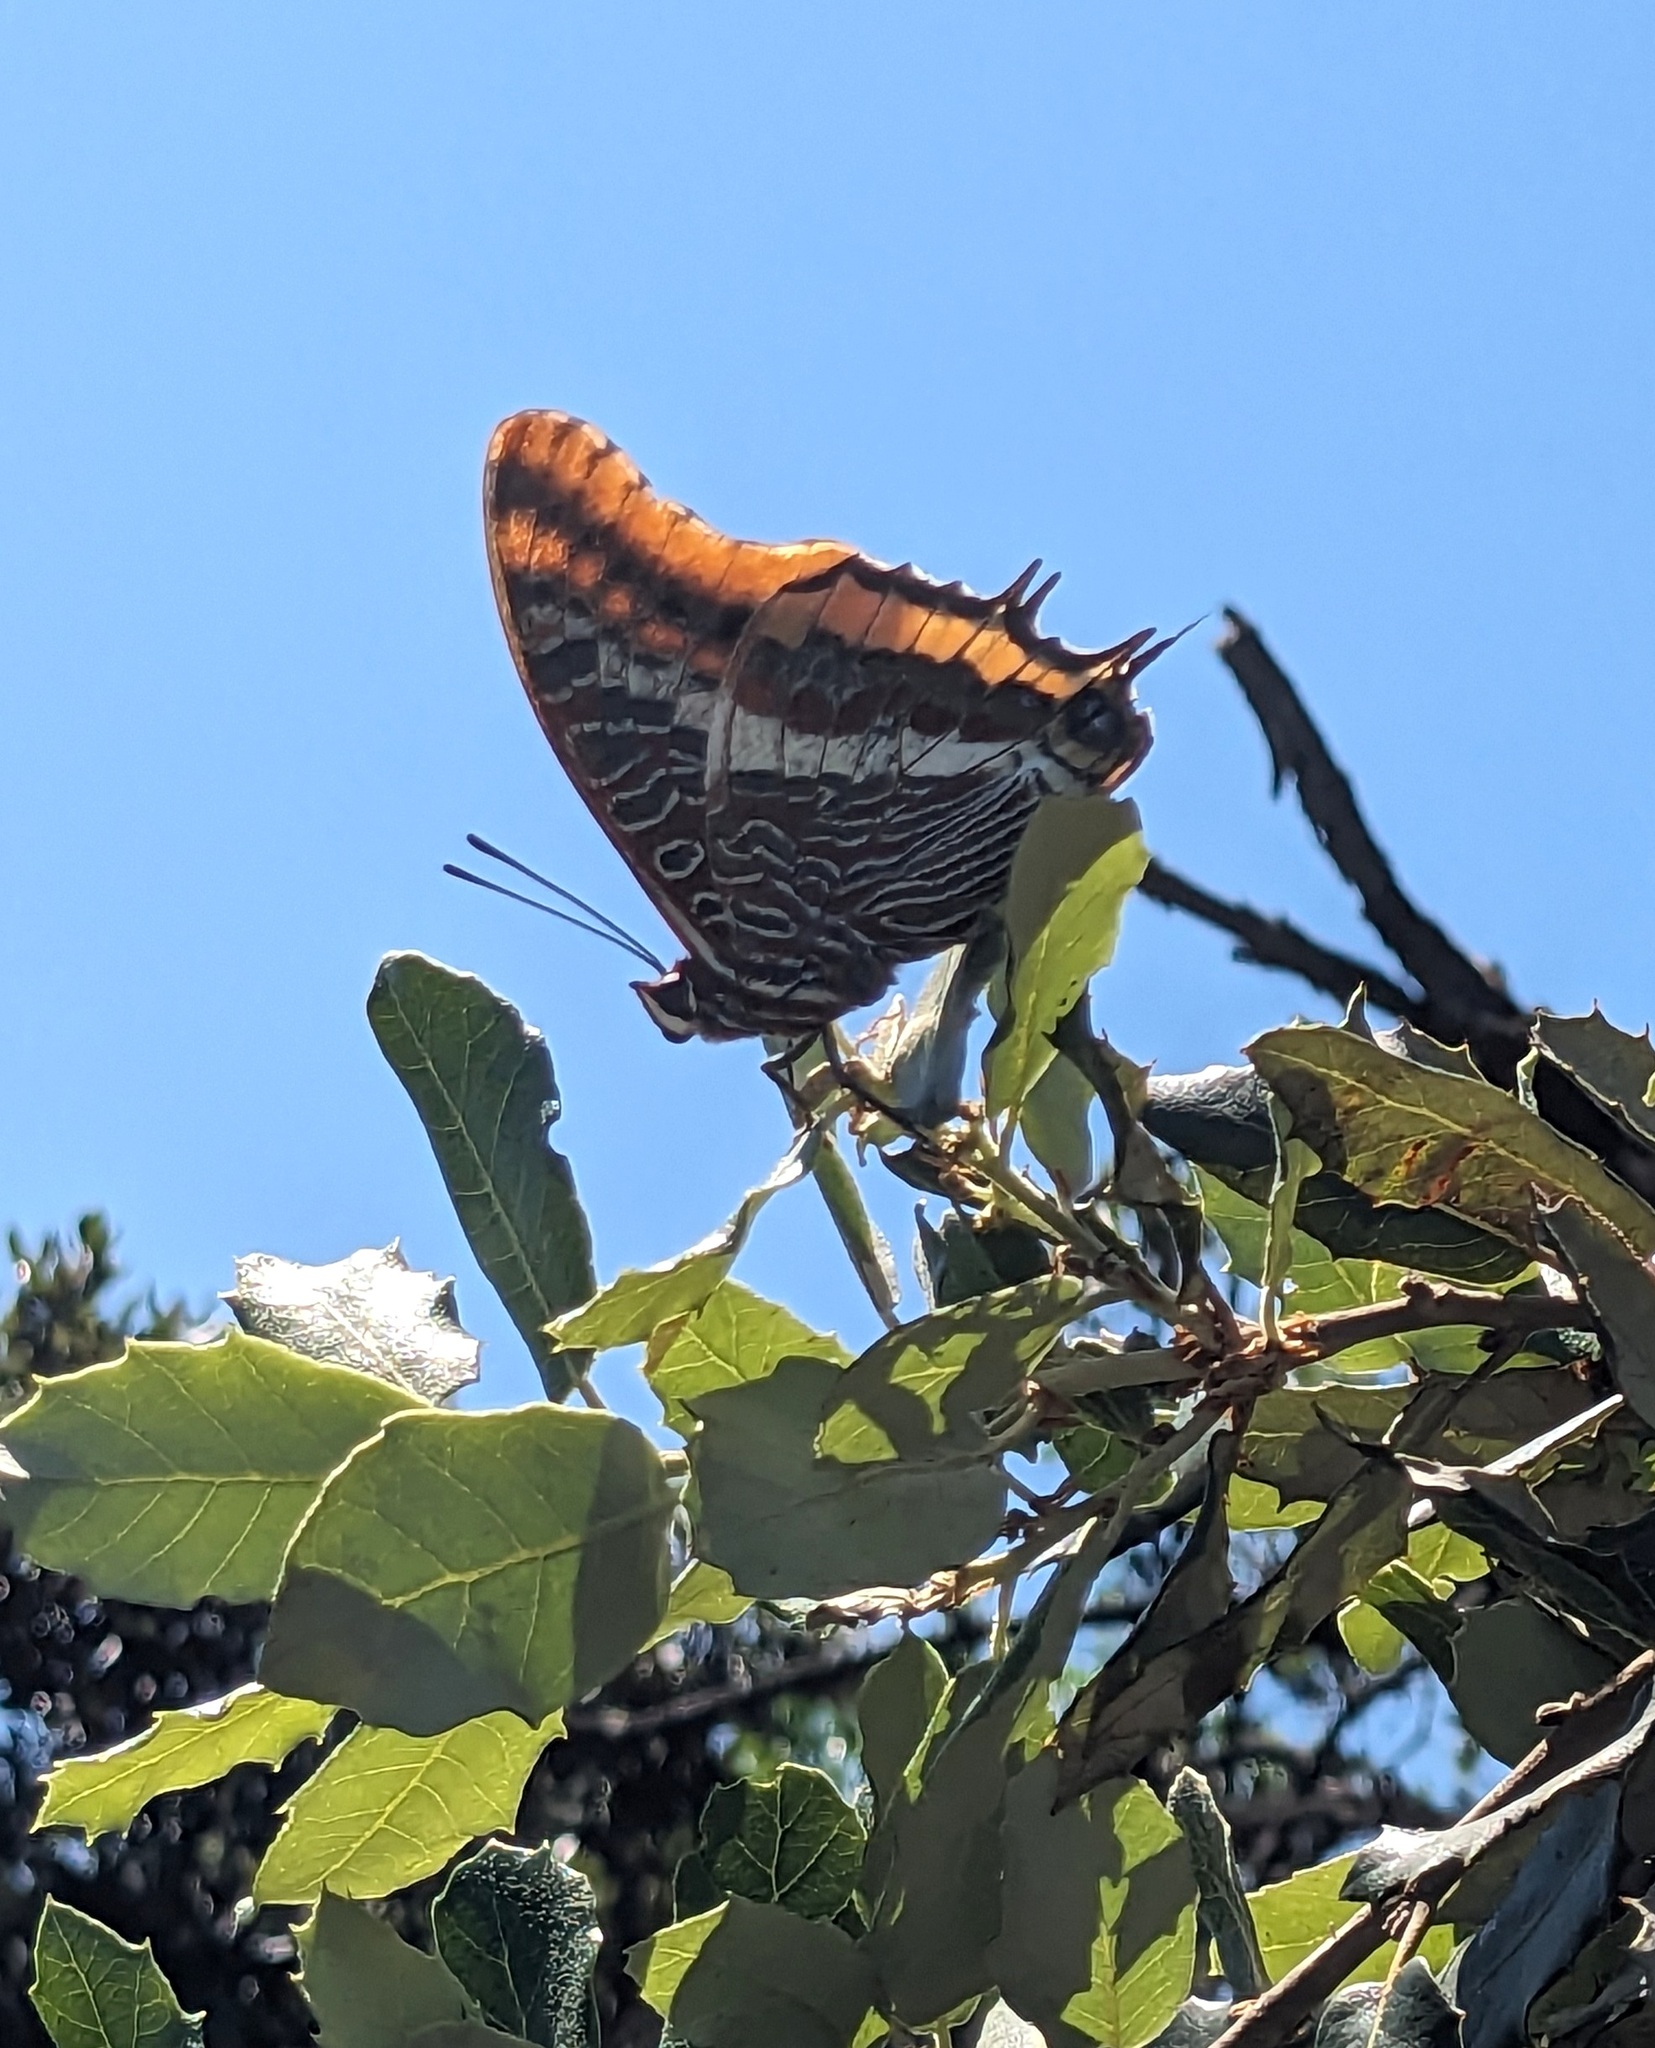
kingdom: Animalia
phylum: Arthropoda
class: Insecta
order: Lepidoptera
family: Nymphalidae
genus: Charaxes
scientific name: Charaxes jasius
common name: Two tailed pasha
